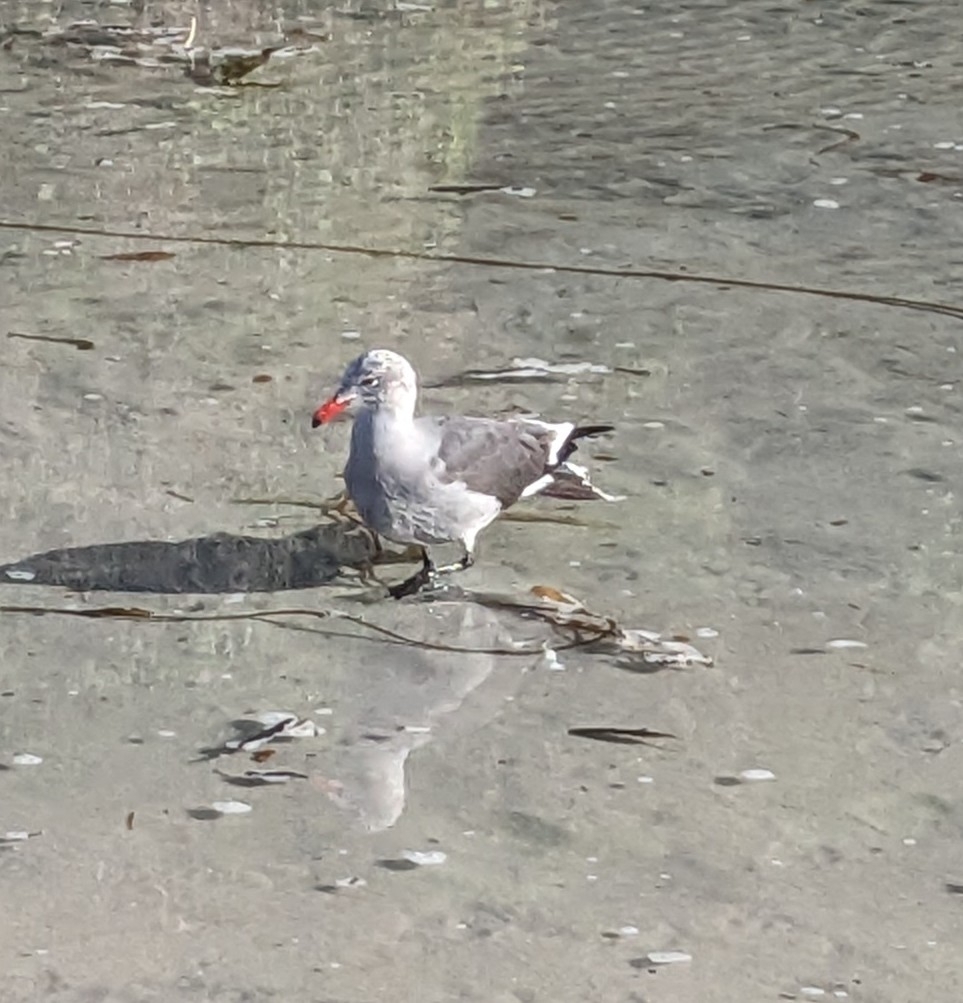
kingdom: Animalia
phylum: Chordata
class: Aves
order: Charadriiformes
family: Laridae
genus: Larus
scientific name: Larus heermanni
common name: Heermann's gull
